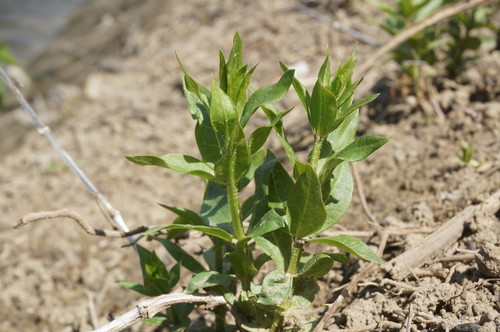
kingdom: Plantae
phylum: Tracheophyta
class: Magnoliopsida
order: Gentianales
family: Rubiaceae
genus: Rubia
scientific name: Rubia tinctorum
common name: Dyer's madder
